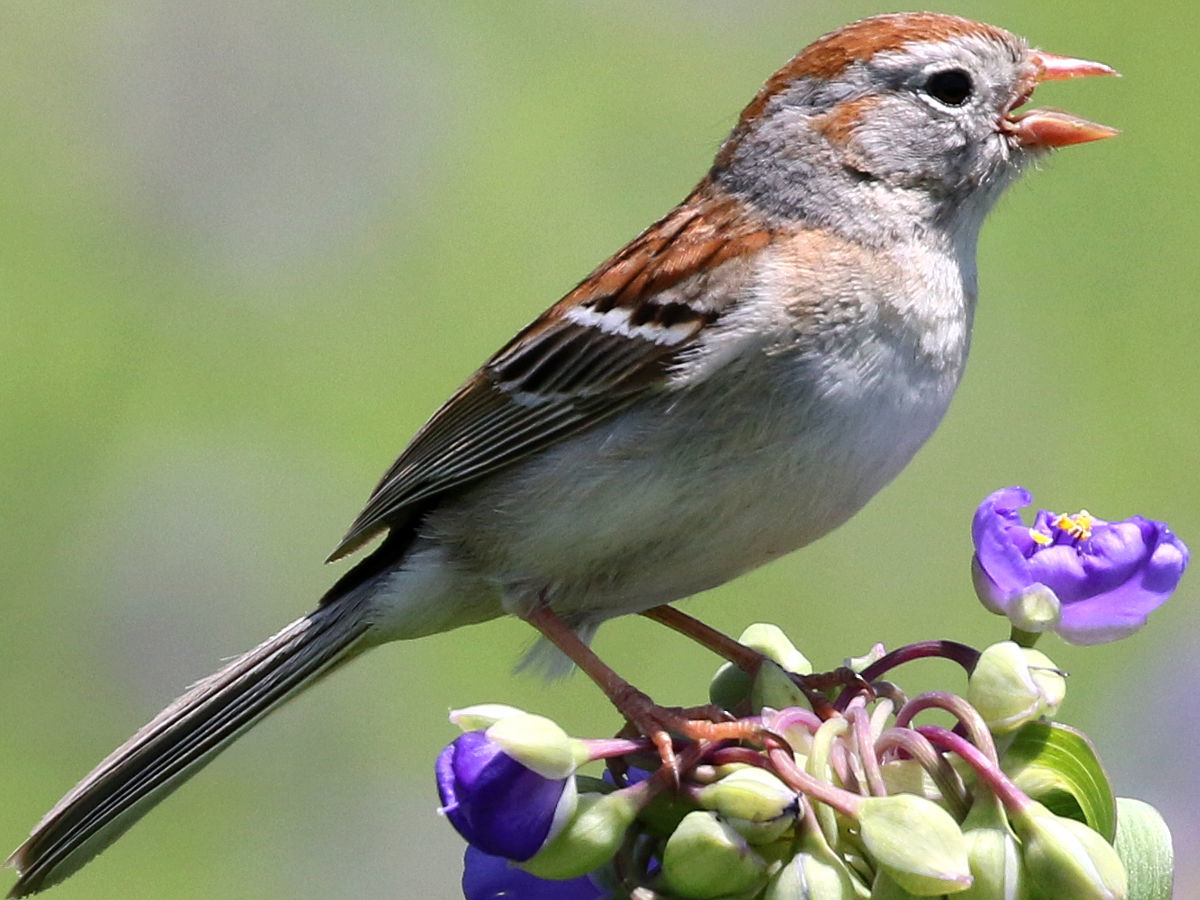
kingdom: Animalia
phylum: Chordata
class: Aves
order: Passeriformes
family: Passerellidae
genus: Spizella
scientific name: Spizella pusilla
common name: Field sparrow
